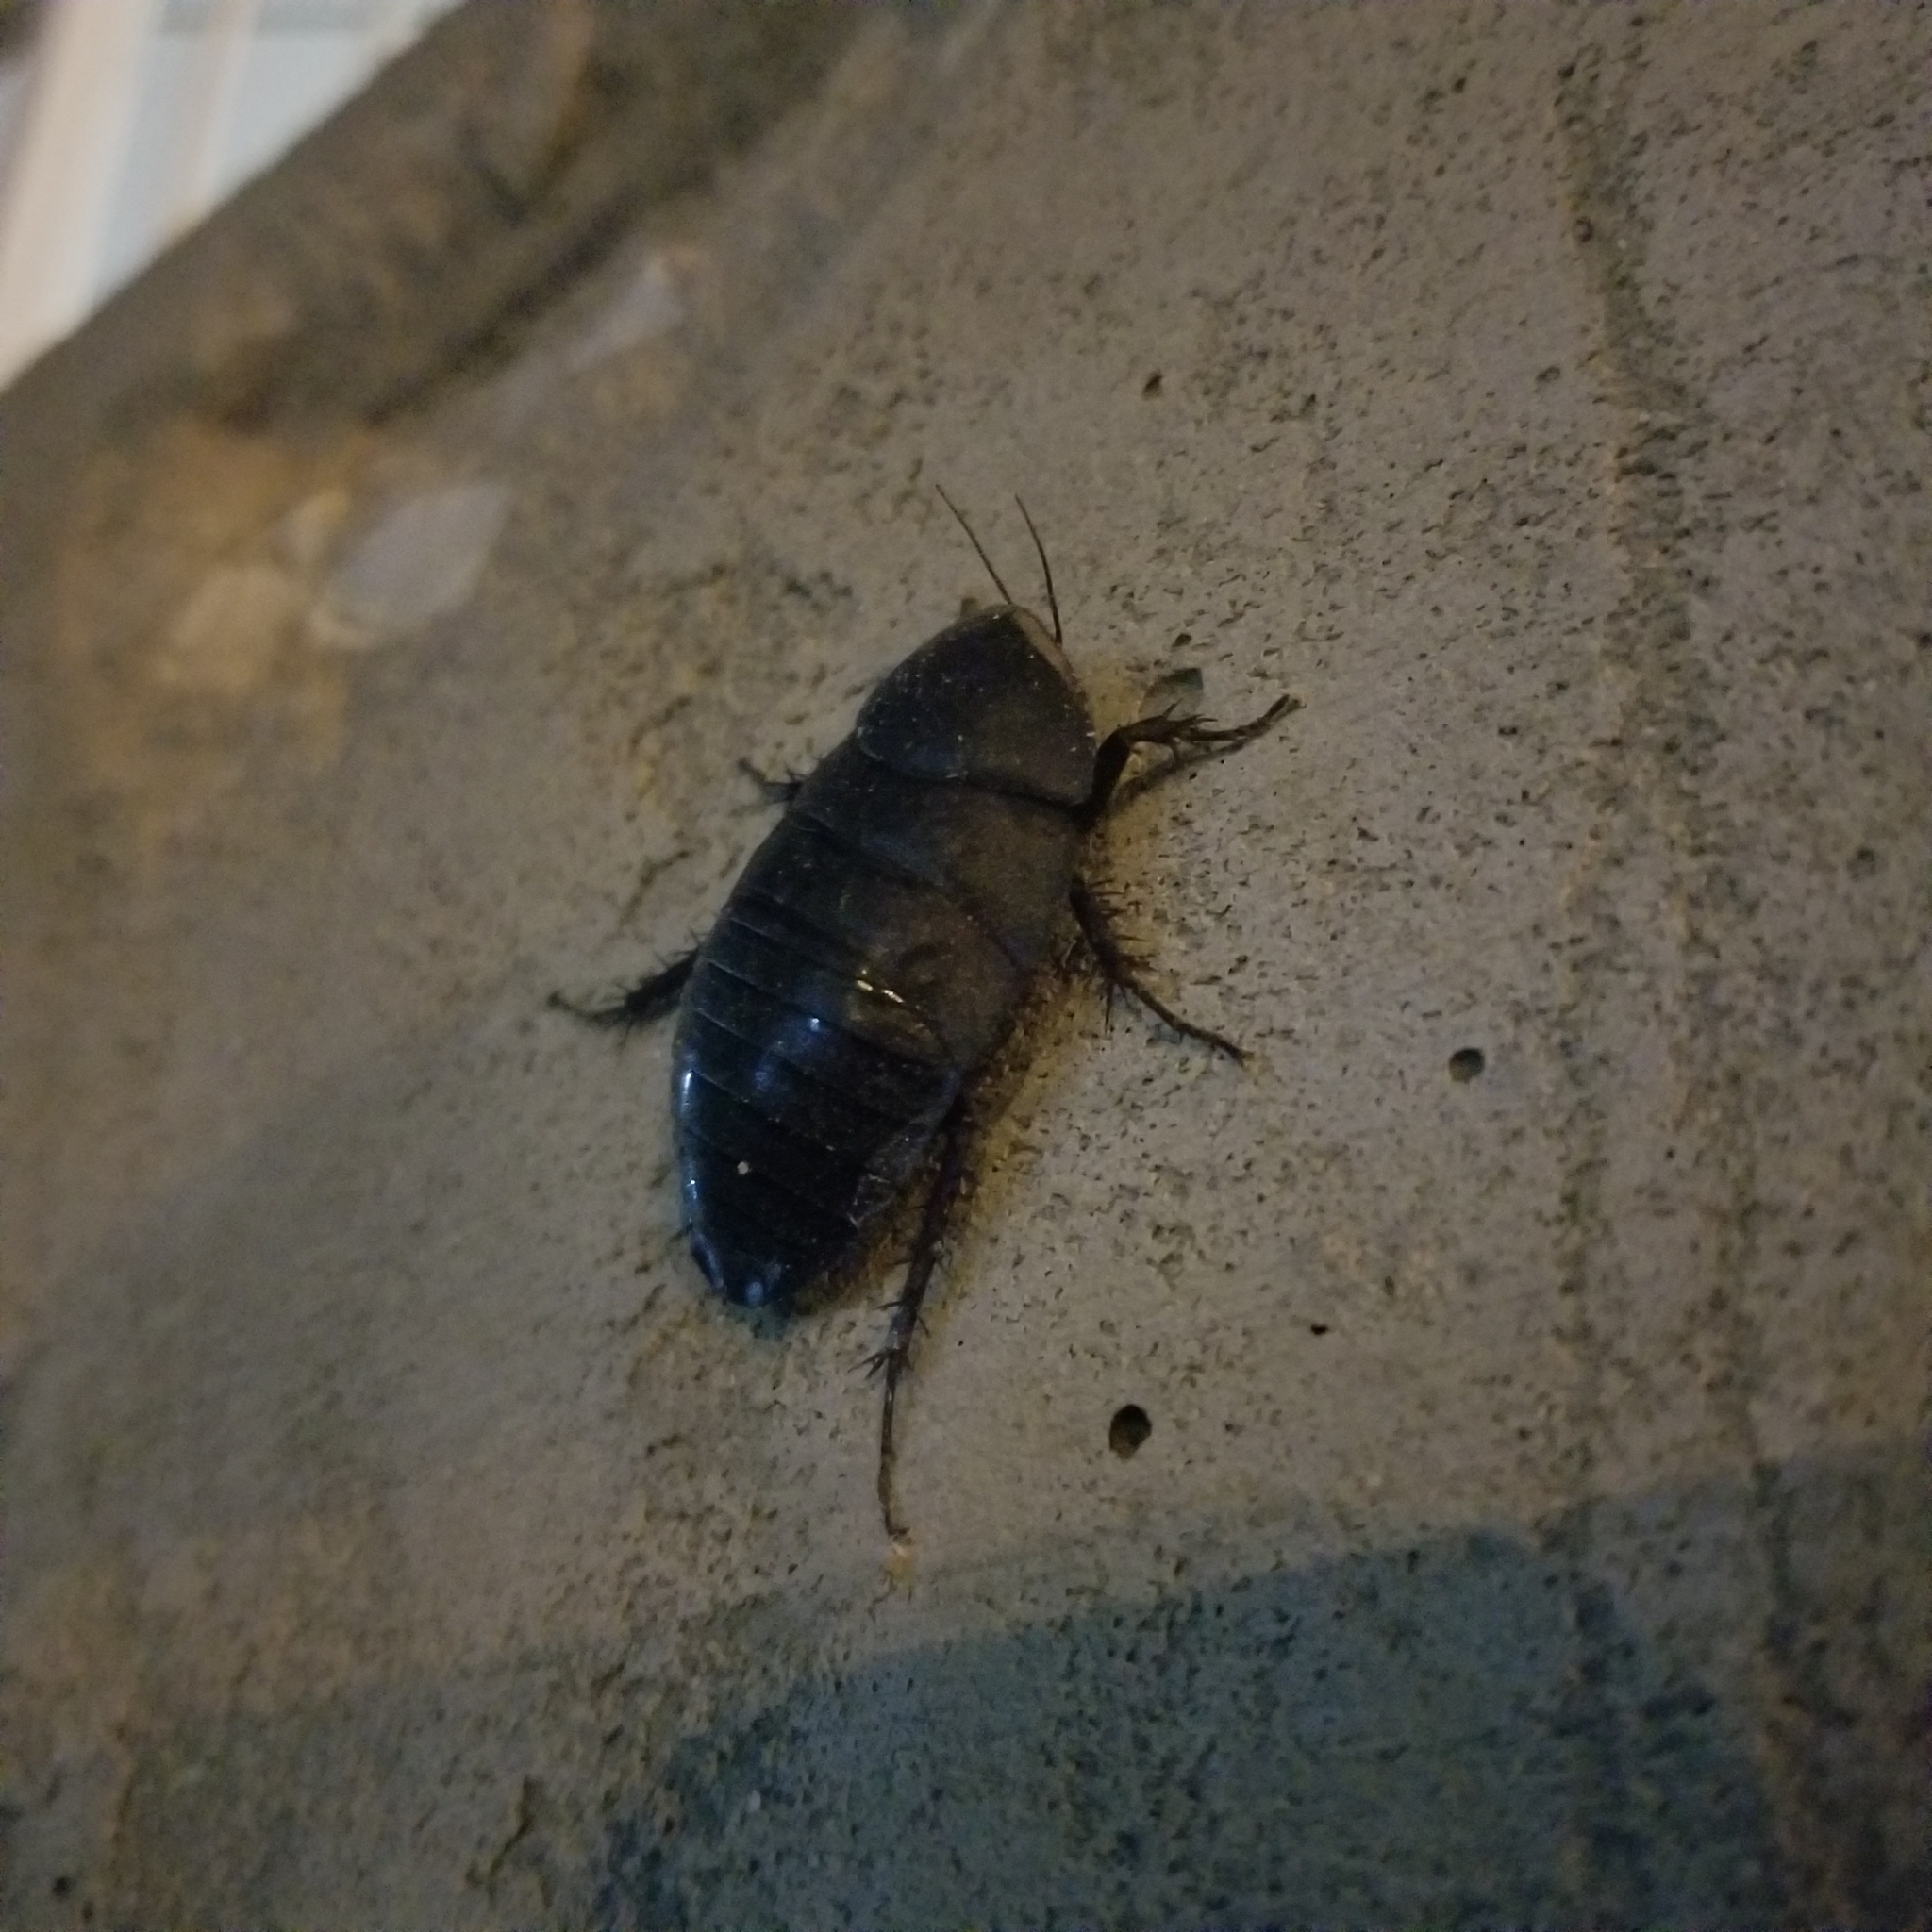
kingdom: Animalia
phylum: Arthropoda
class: Insecta
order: Blattodea
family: Corydiidae
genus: Polyphaga
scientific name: Polyphaga aegyptiaca
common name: Egyptian cockroach
